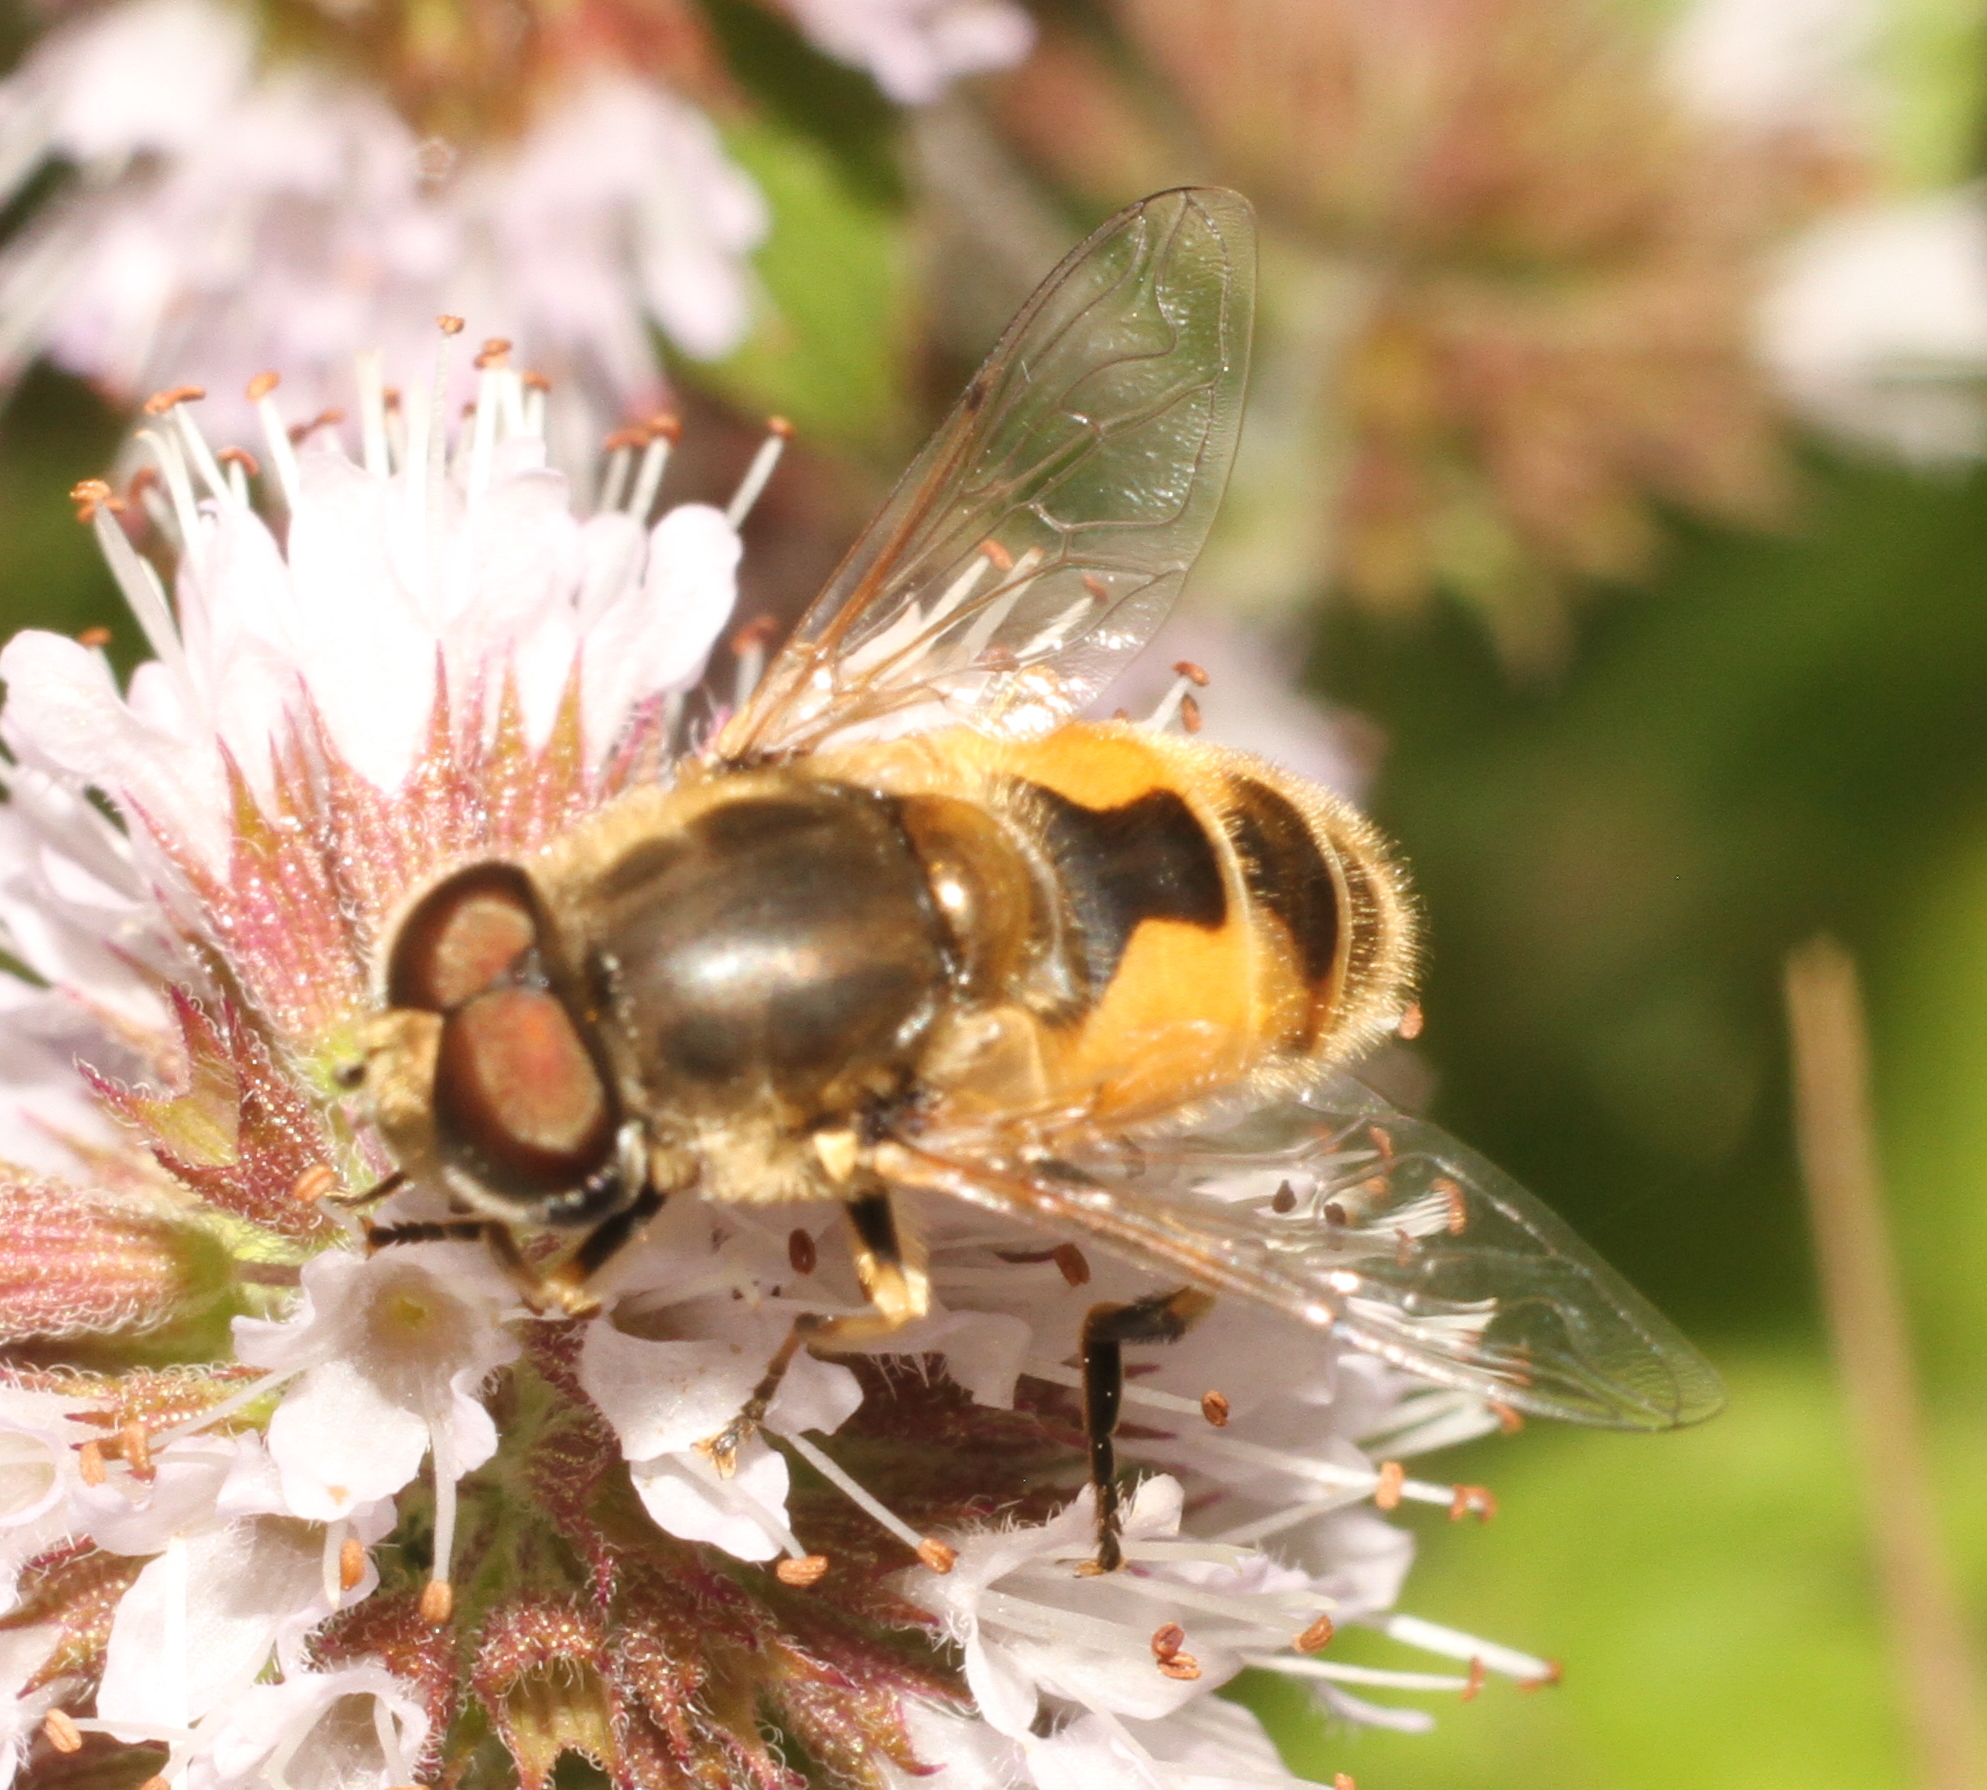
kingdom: Animalia
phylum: Arthropoda
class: Insecta
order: Diptera
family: Syrphidae
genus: Eristalis
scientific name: Eristalis arbustorum
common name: Hover fly
